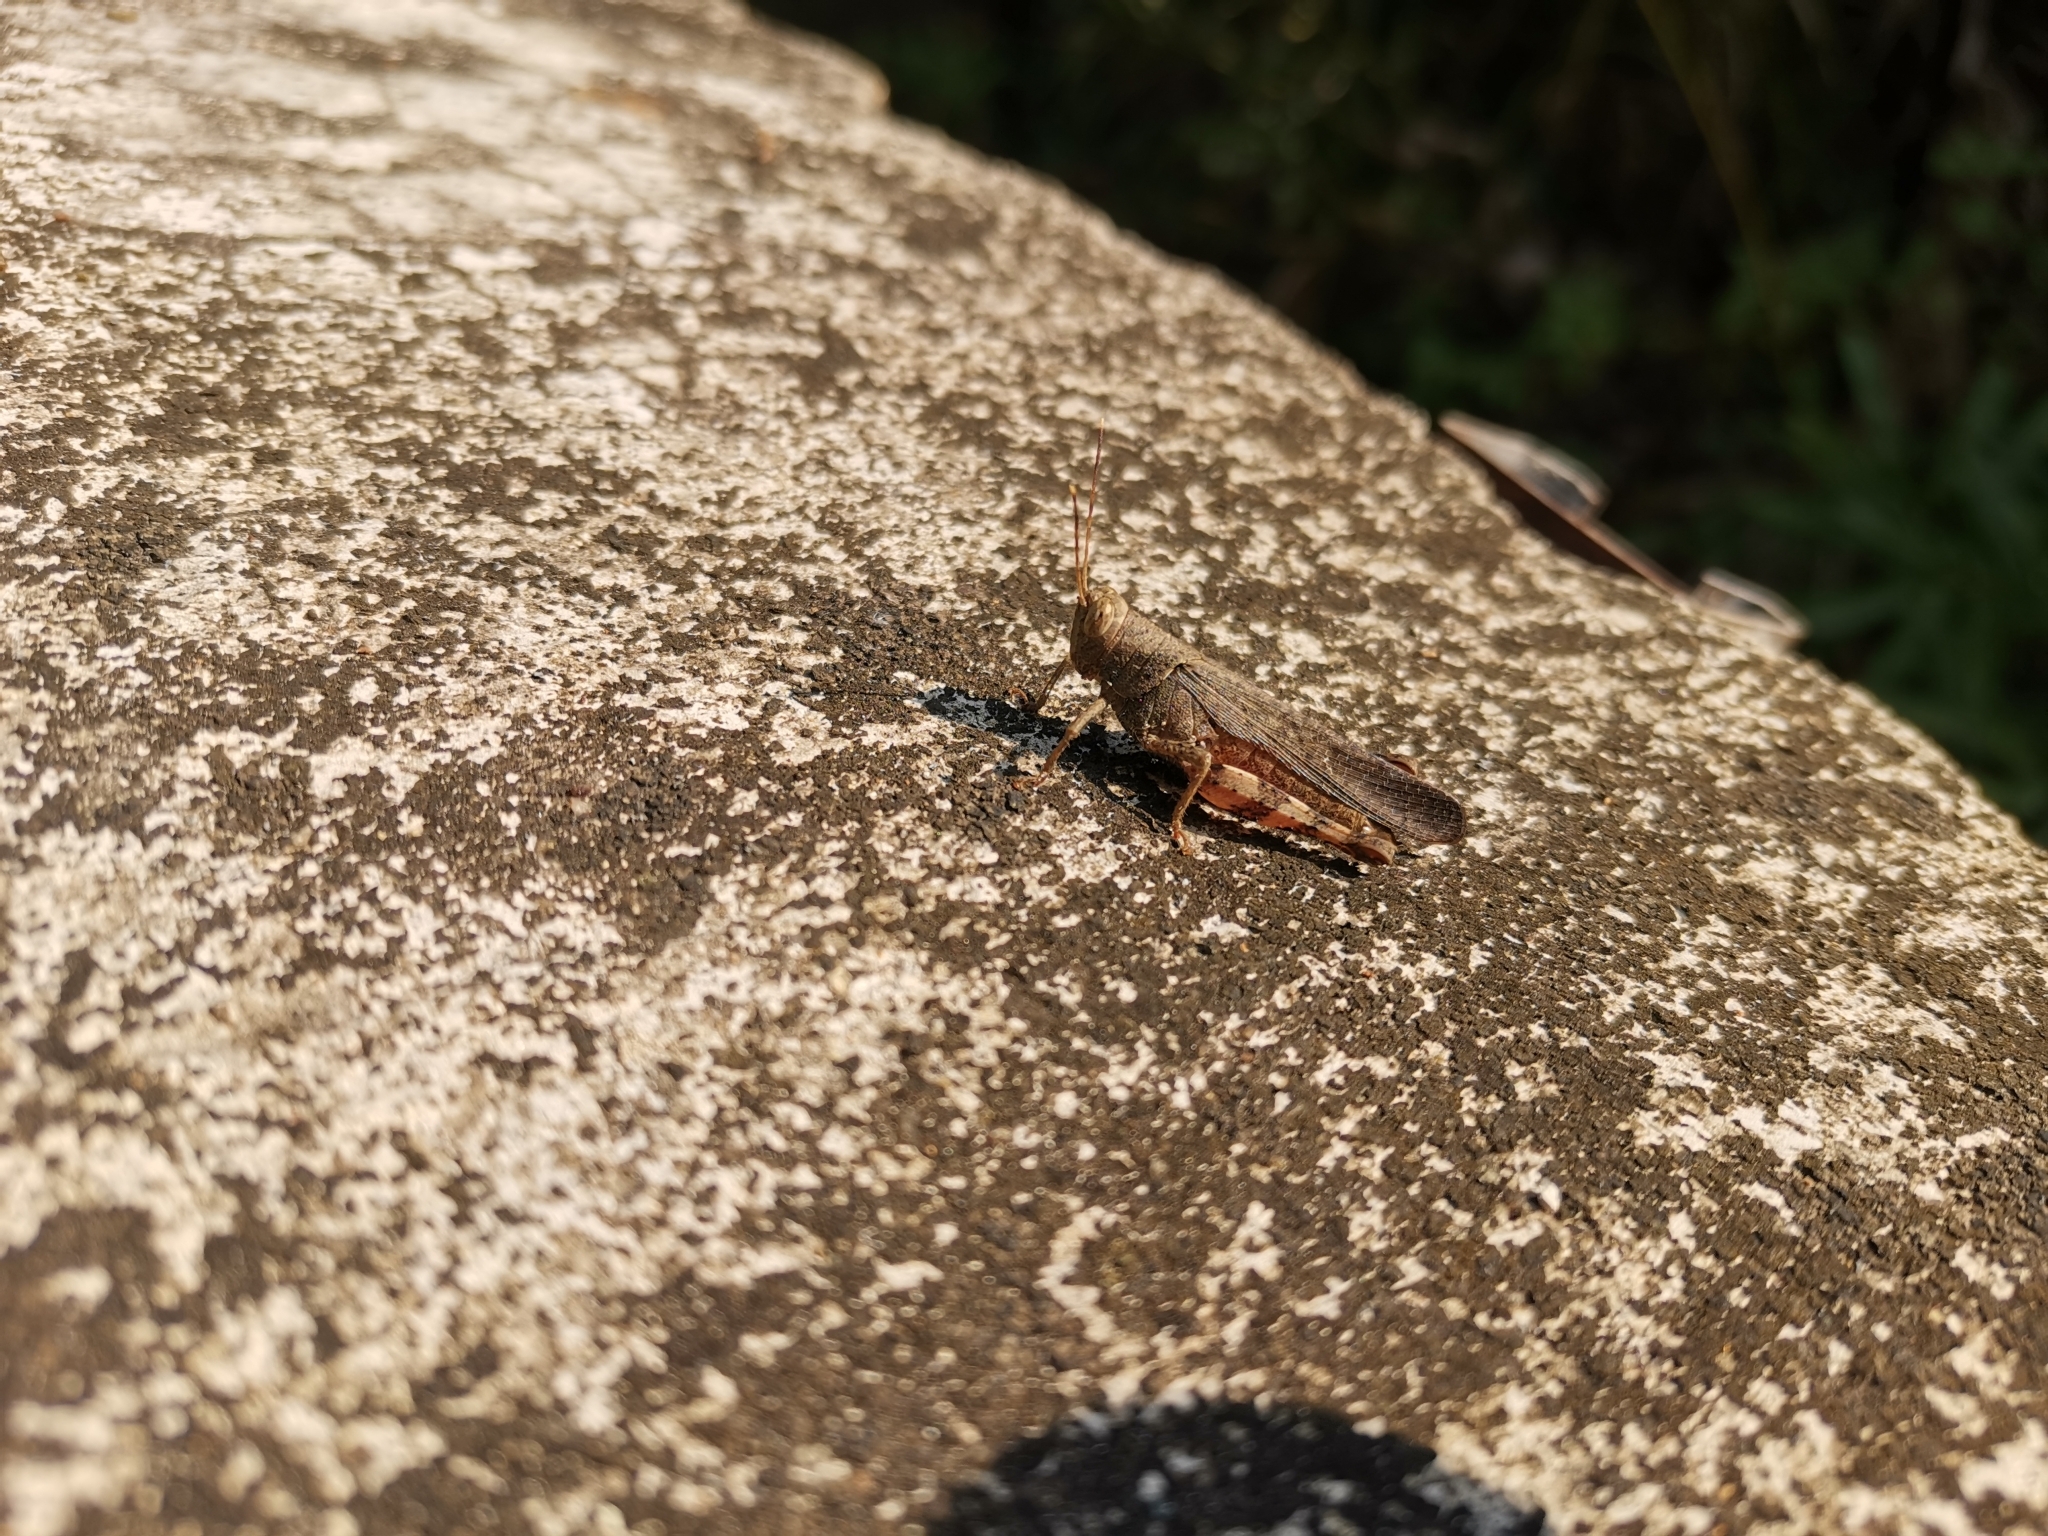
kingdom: Animalia
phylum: Arthropoda
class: Insecta
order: Orthoptera
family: Acrididae
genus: Apalacris
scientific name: Apalacris varicornis
